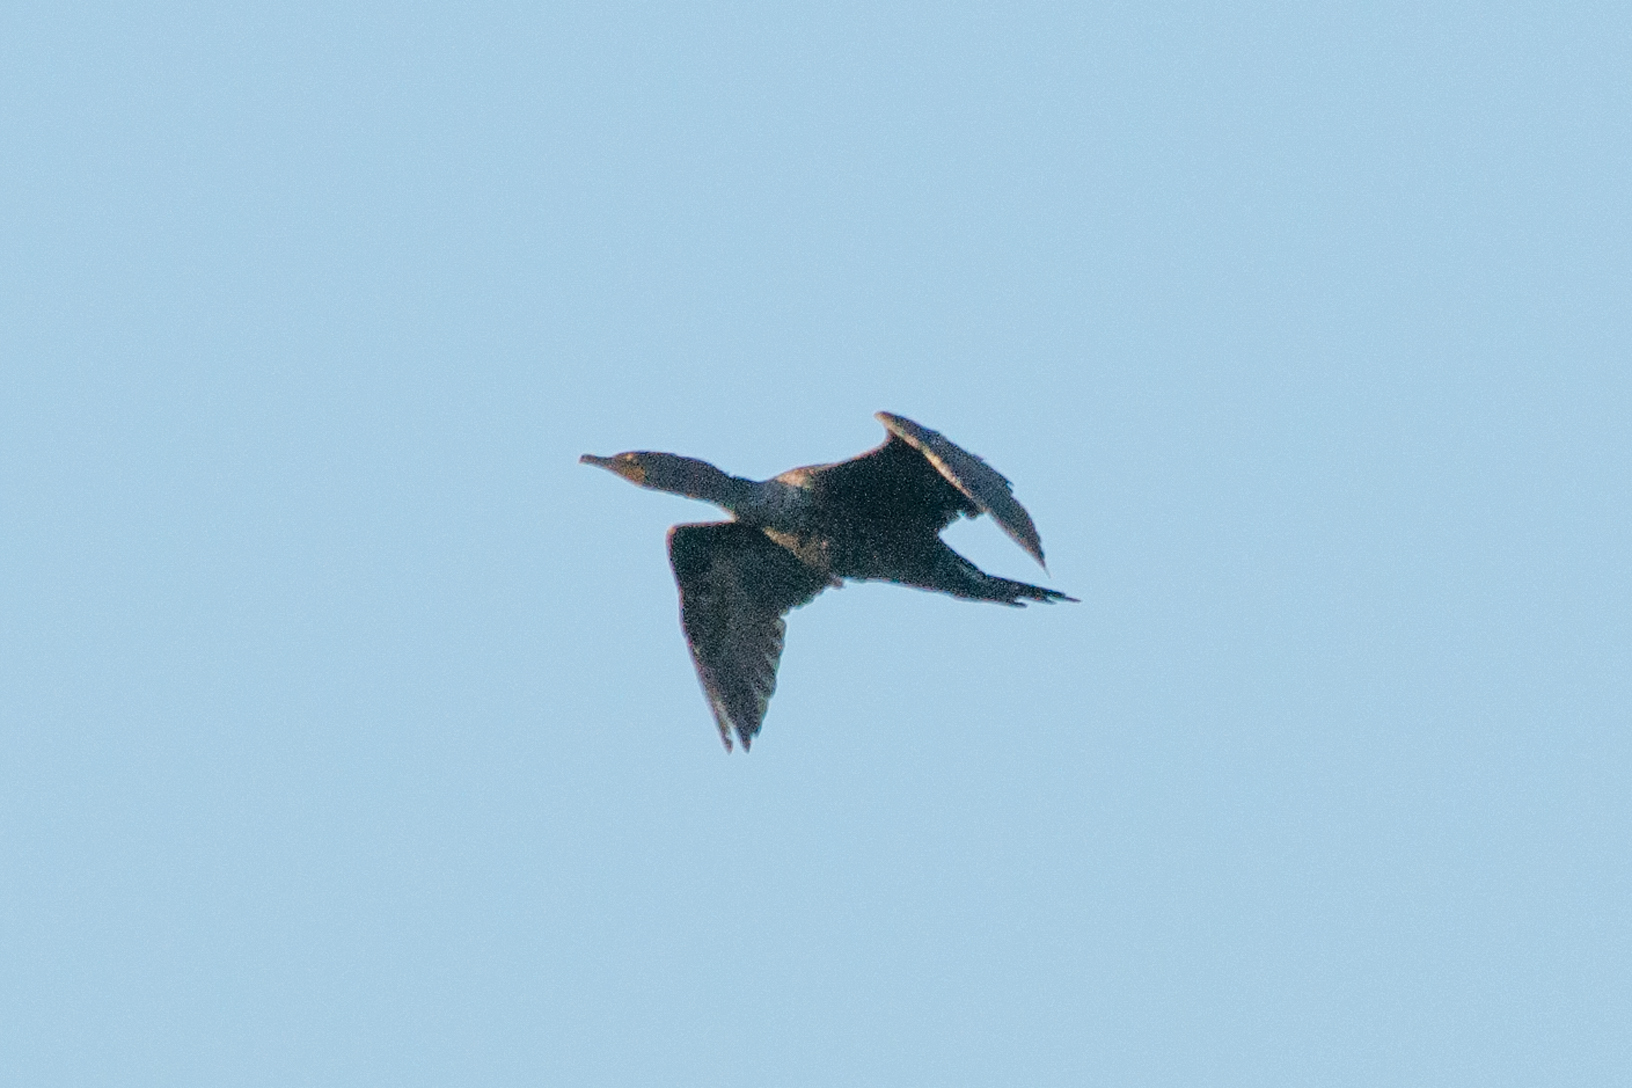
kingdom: Animalia
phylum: Chordata
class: Aves
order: Suliformes
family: Phalacrocoracidae
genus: Phalacrocorax
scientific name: Phalacrocorax auritus
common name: Double-crested cormorant
